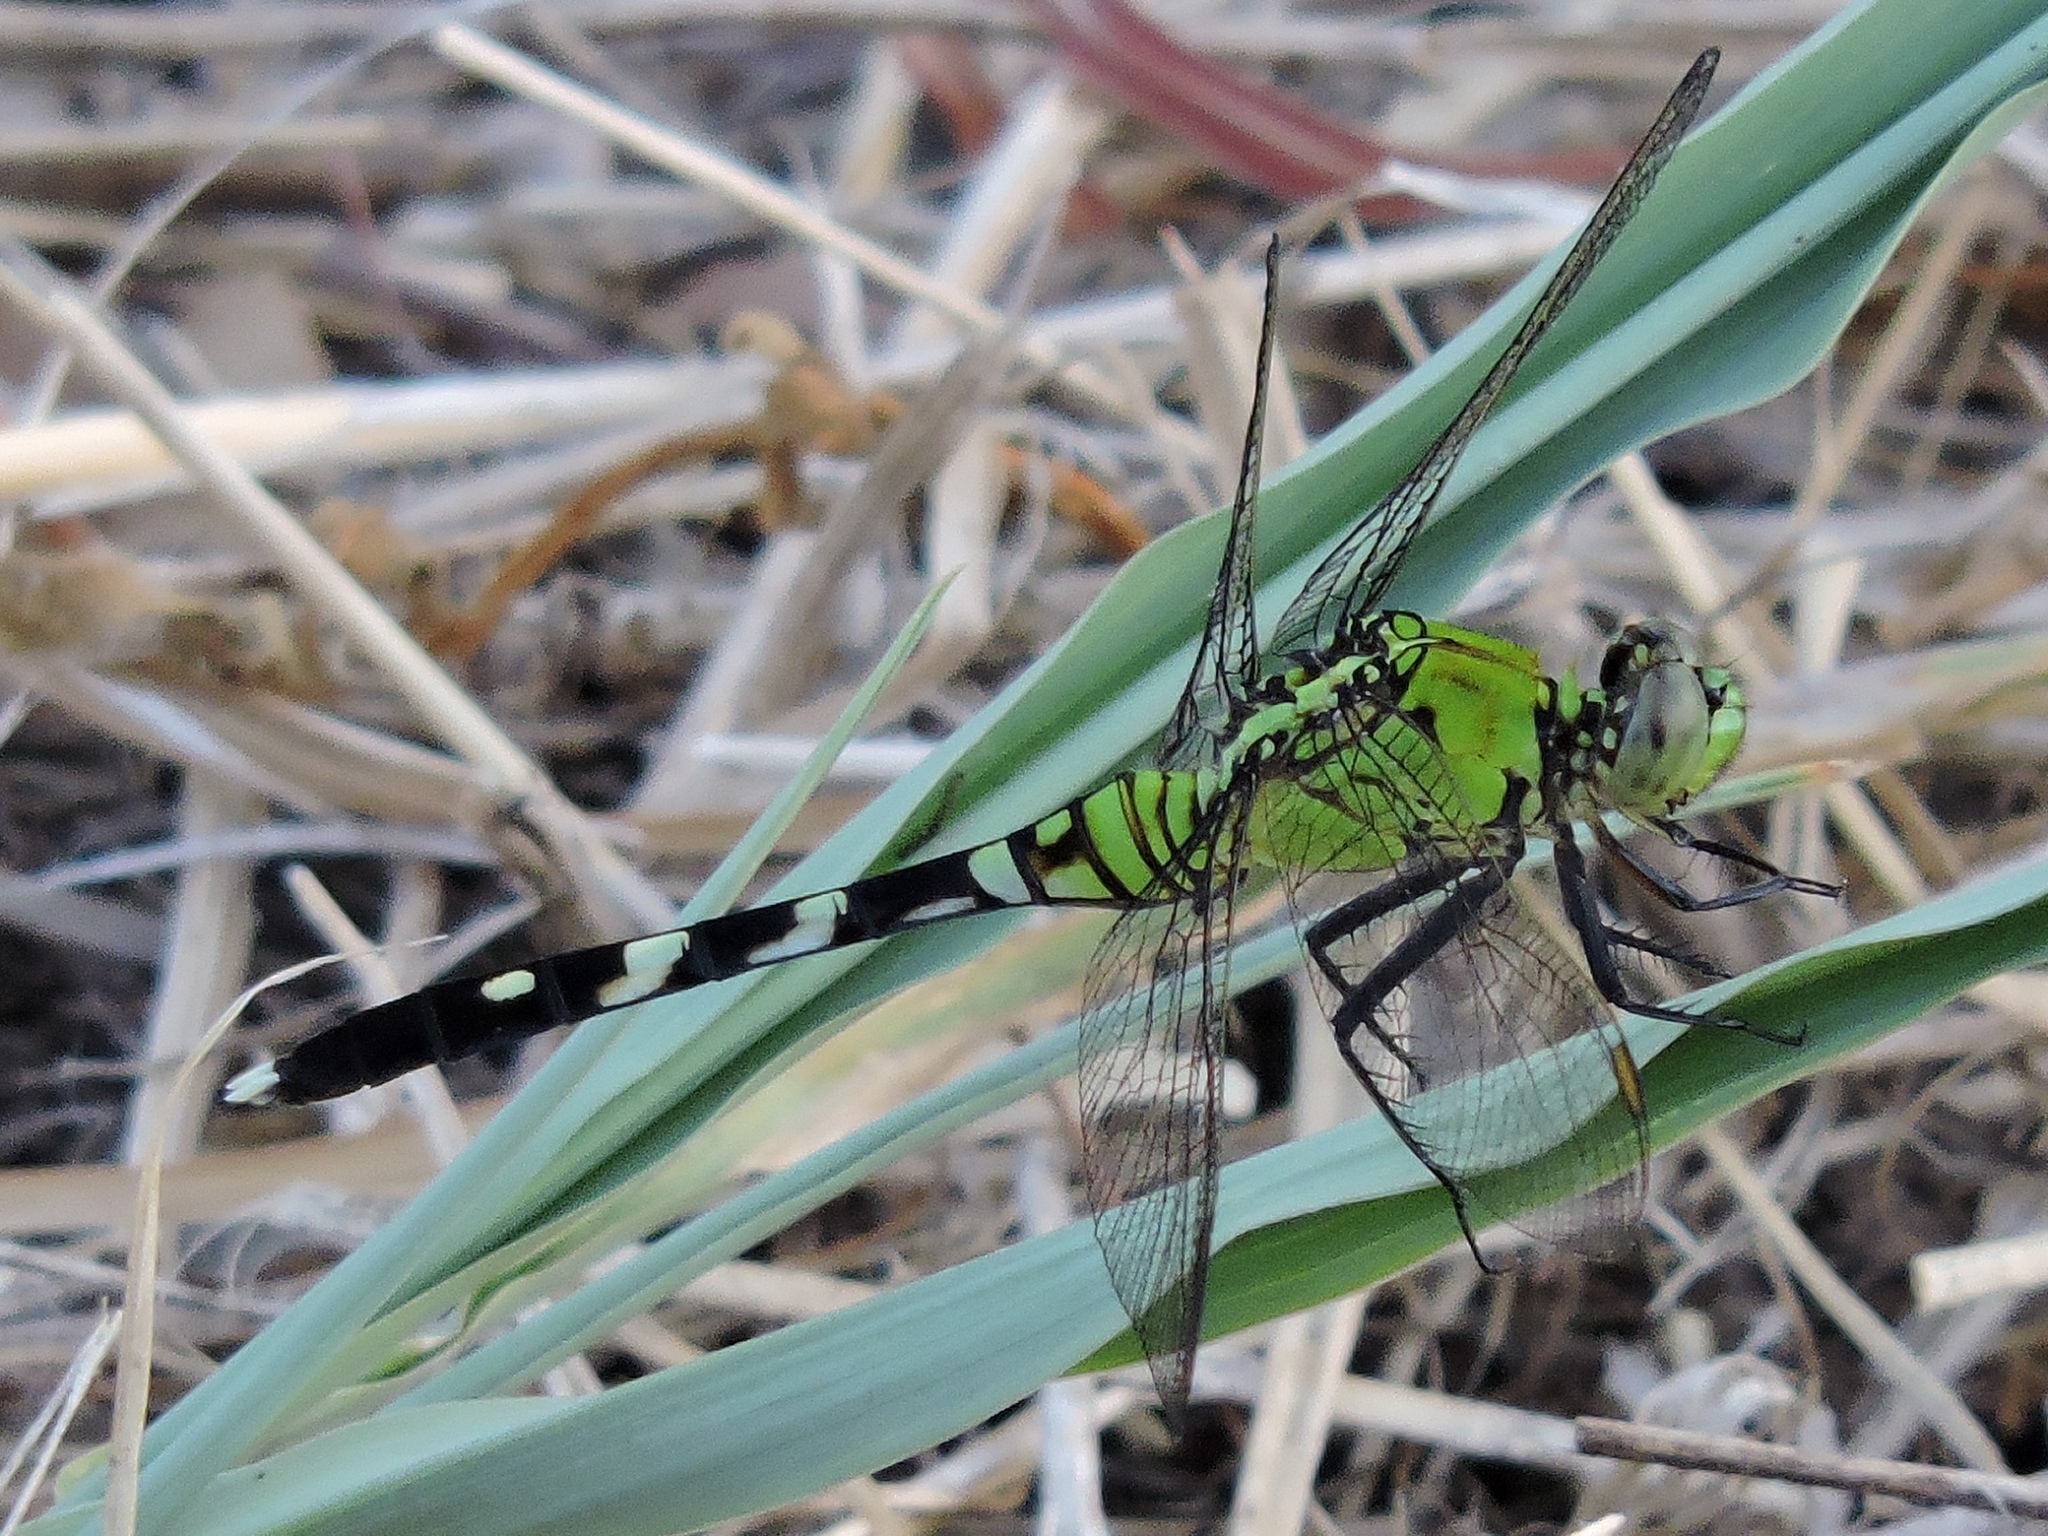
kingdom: Animalia
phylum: Arthropoda
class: Insecta
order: Odonata
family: Libellulidae
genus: Erythemis
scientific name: Erythemis simplicicollis
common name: Eastern pondhawk
